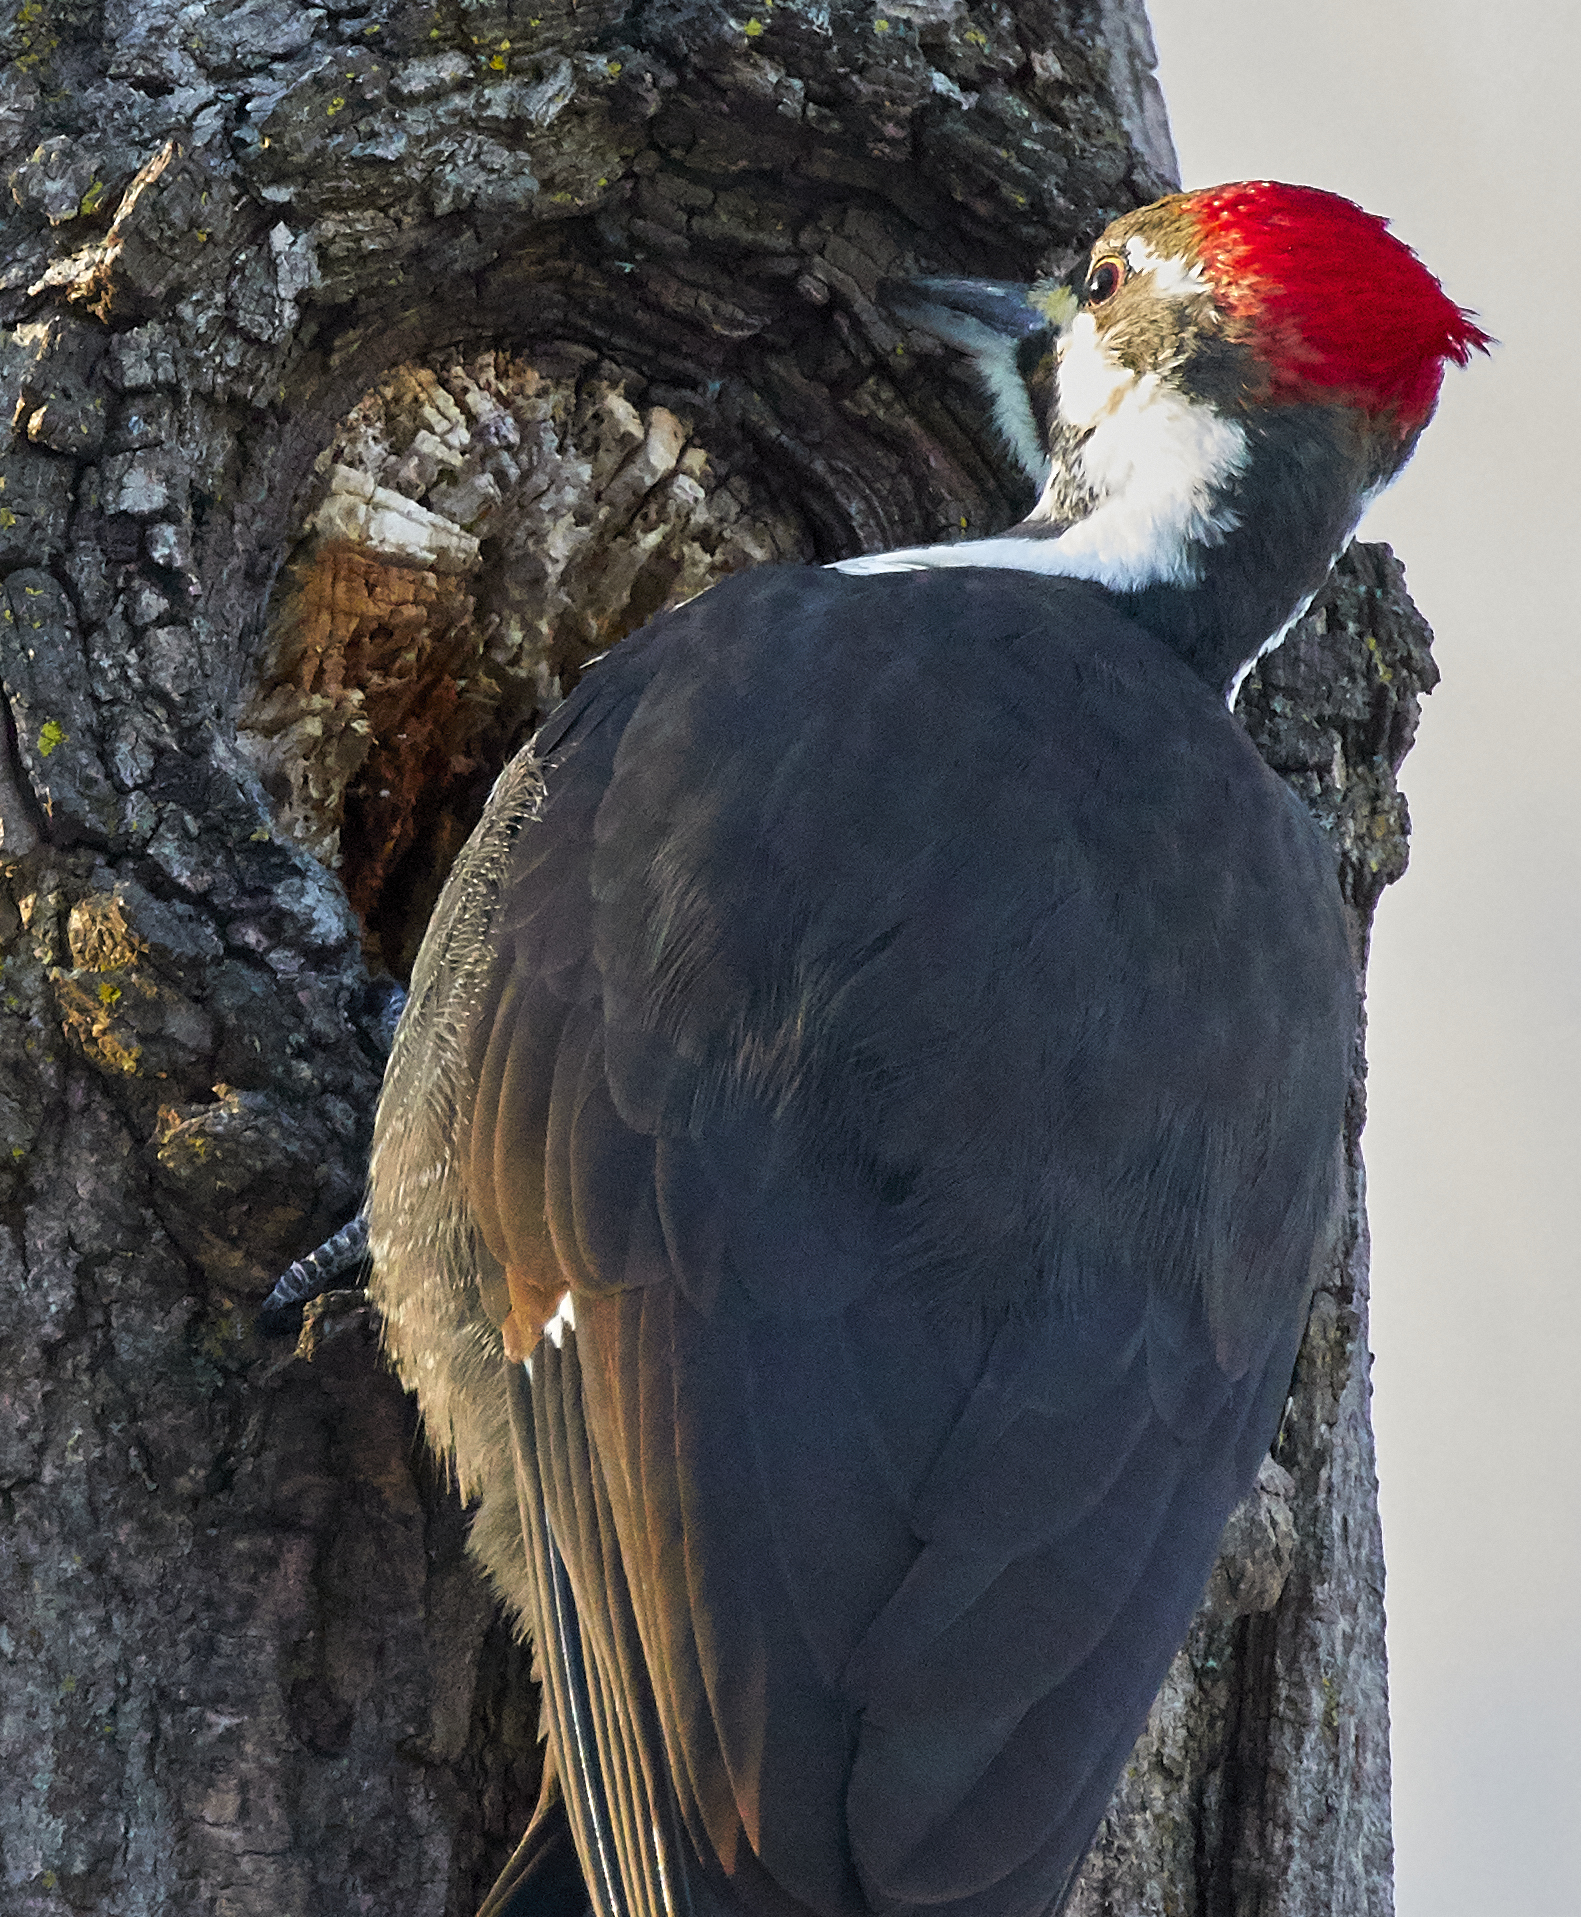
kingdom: Animalia
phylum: Chordata
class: Aves
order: Piciformes
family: Picidae
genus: Dryocopus
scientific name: Dryocopus pileatus
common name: Pileated woodpecker
